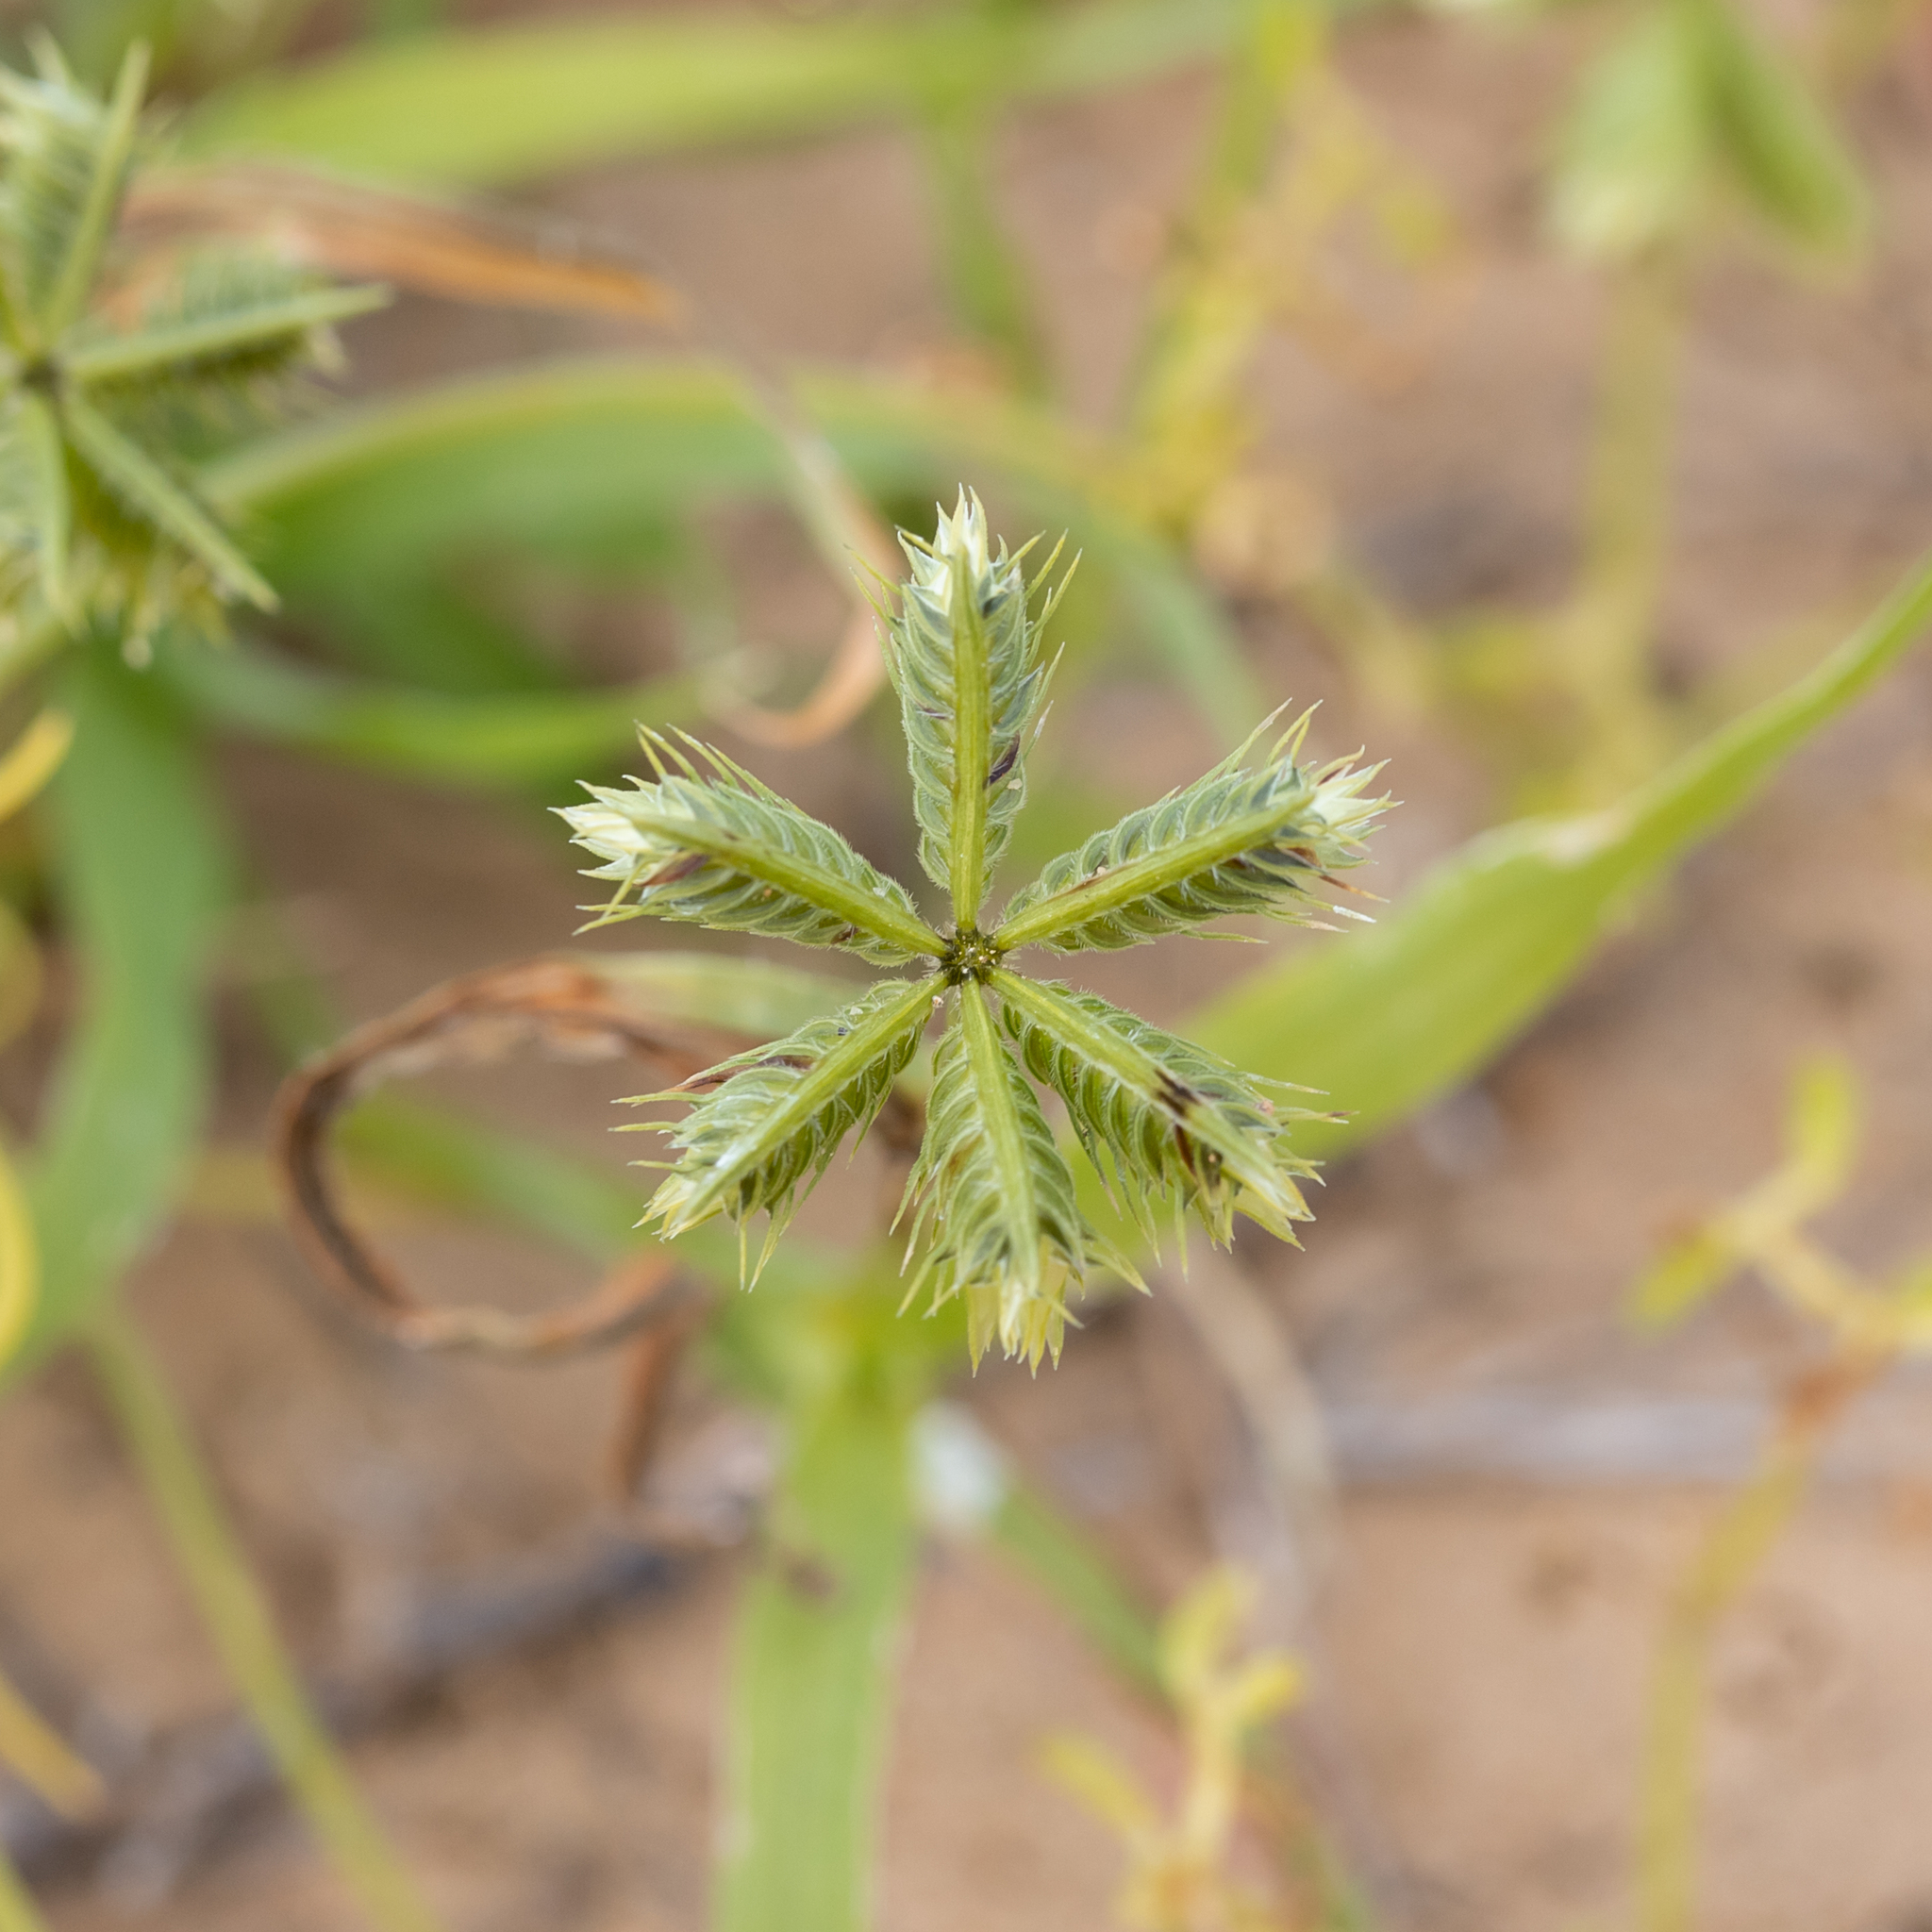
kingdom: Plantae
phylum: Tracheophyta
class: Liliopsida
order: Poales
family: Poaceae
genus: Dactyloctenium
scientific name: Dactyloctenium radulans
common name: Button-grass
